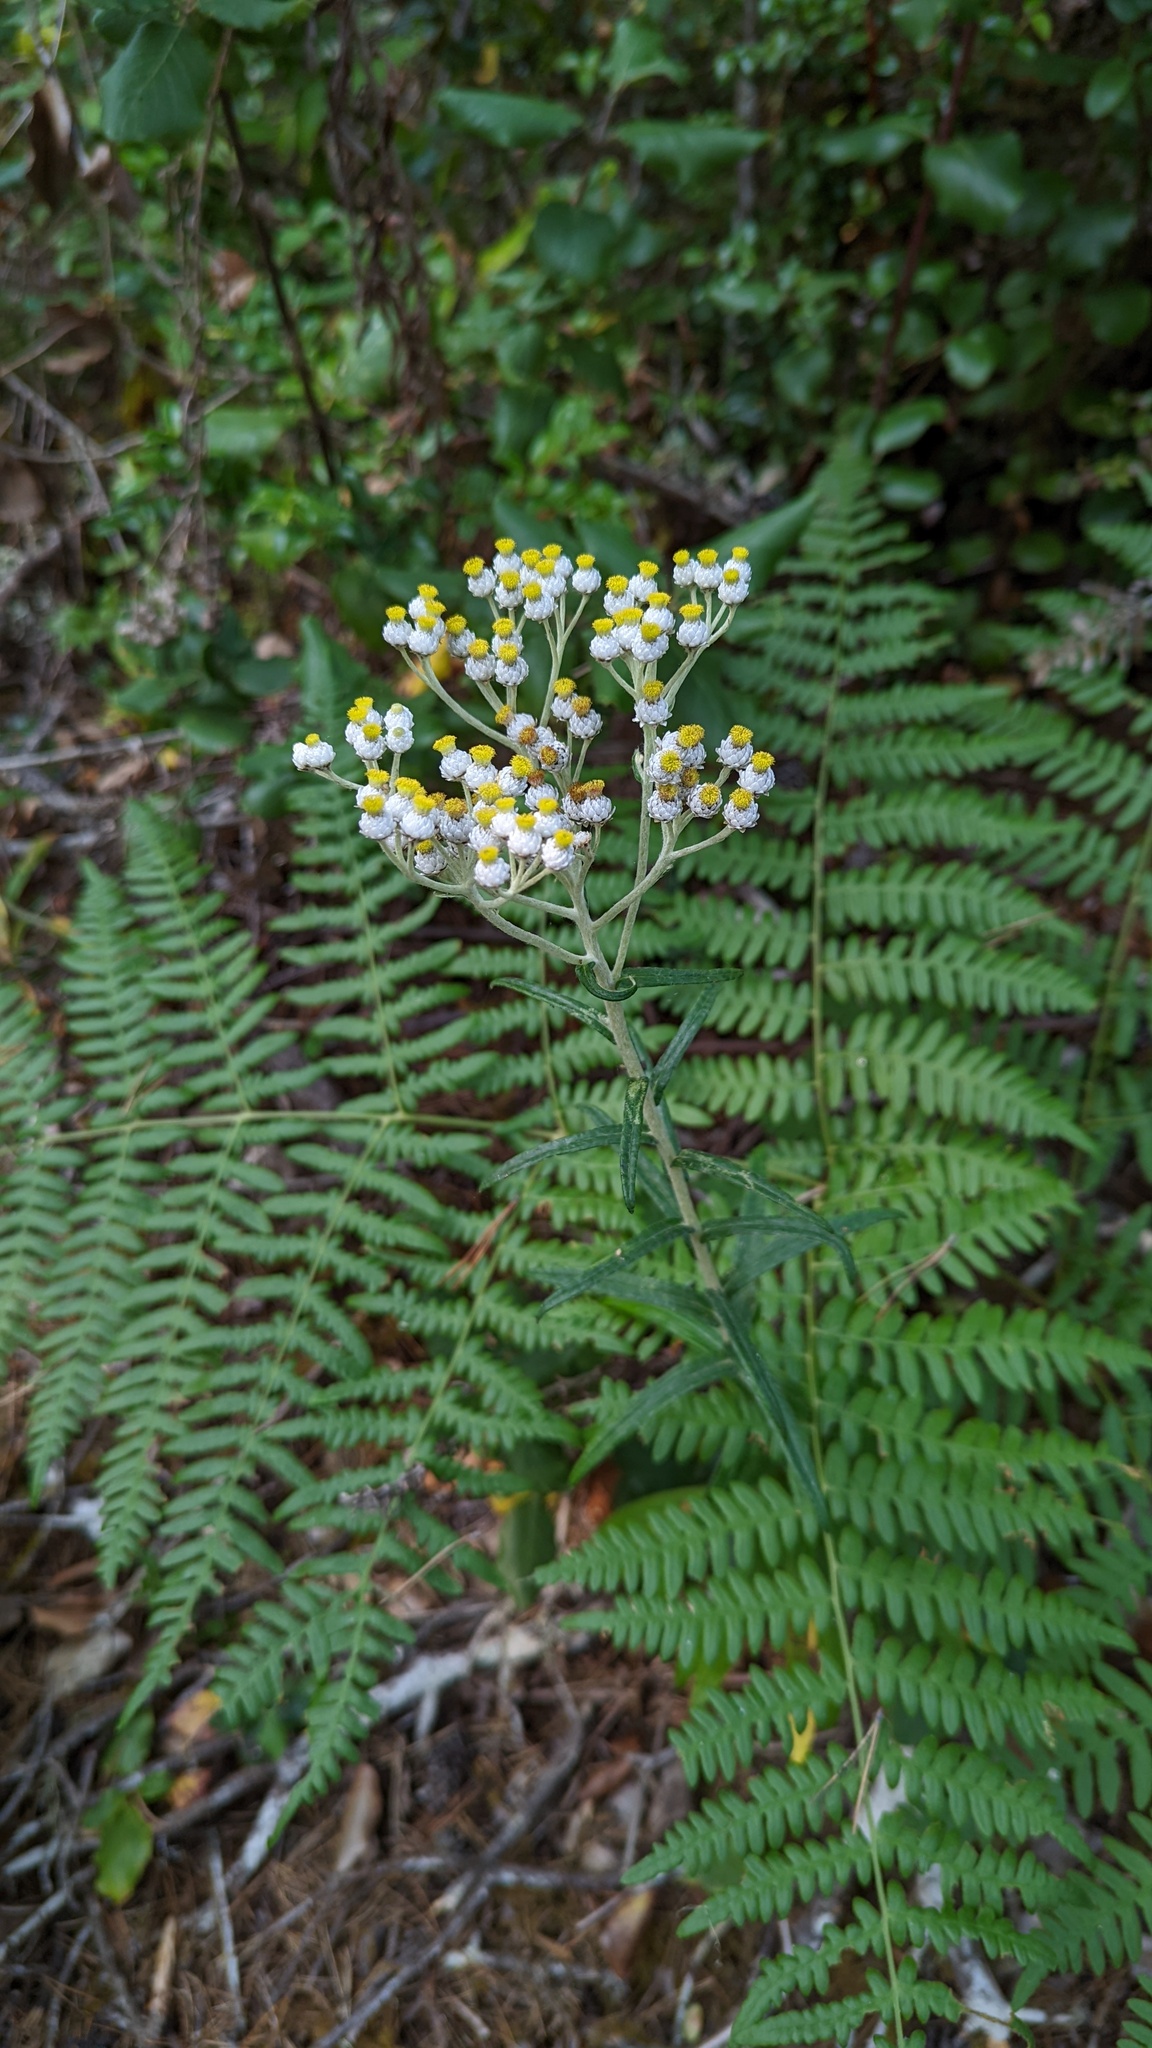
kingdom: Plantae
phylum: Tracheophyta
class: Magnoliopsida
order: Asterales
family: Asteraceae
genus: Anaphalis
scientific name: Anaphalis margaritacea
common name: Pearly everlasting
